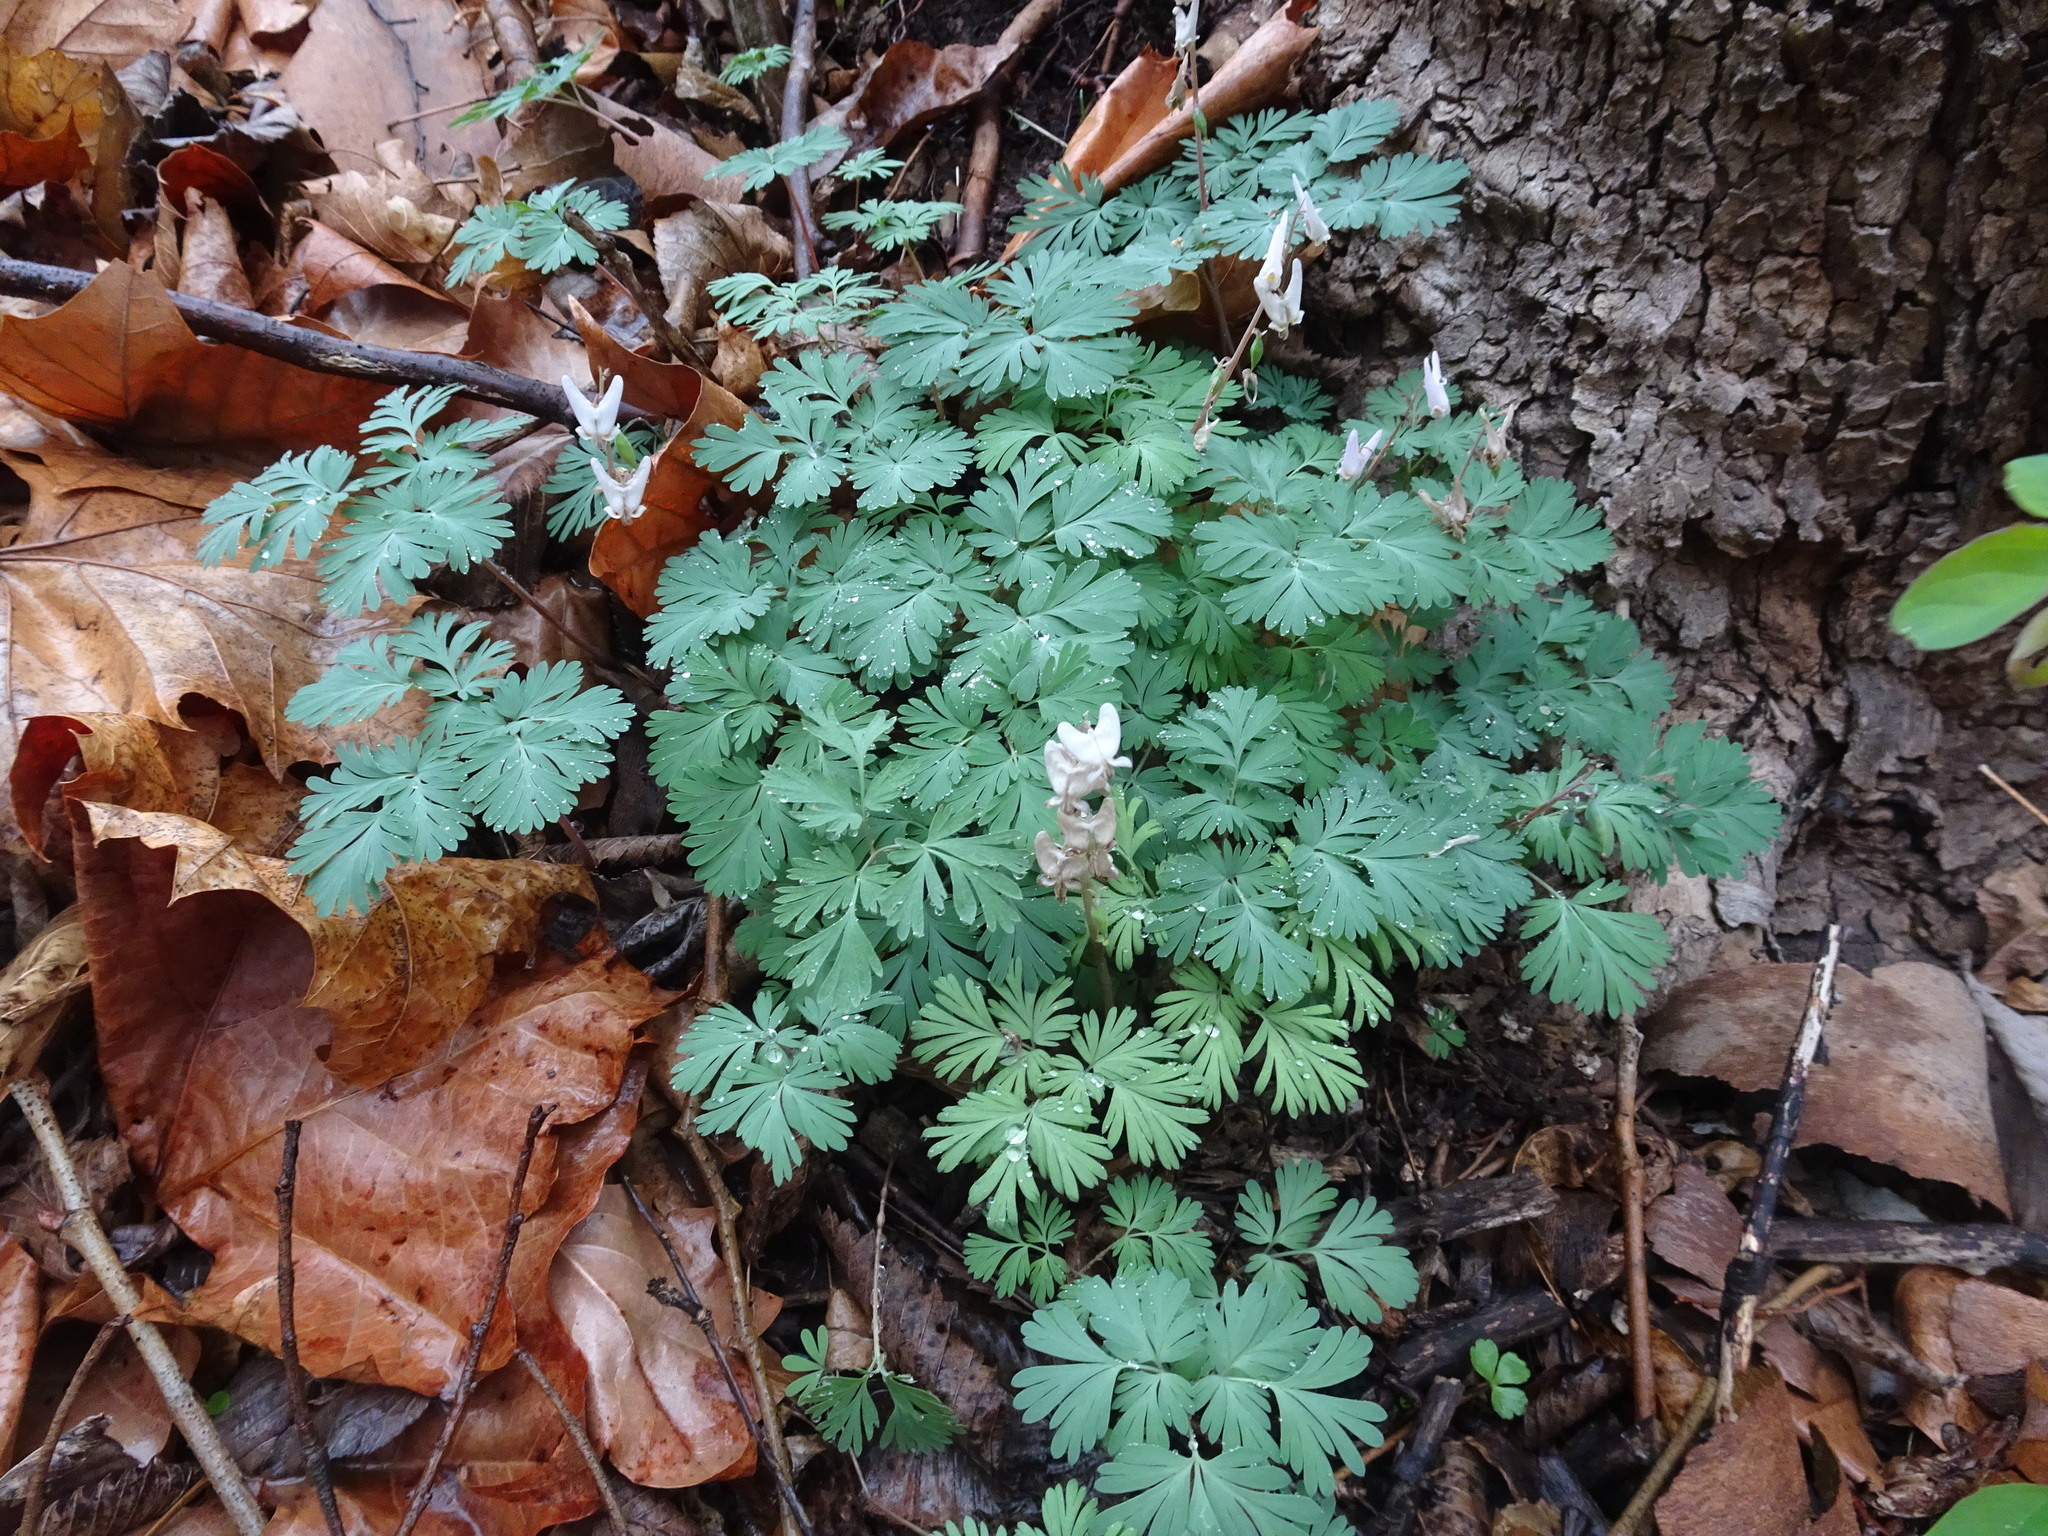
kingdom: Plantae
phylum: Tracheophyta
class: Magnoliopsida
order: Ranunculales
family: Papaveraceae
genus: Dicentra
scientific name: Dicentra cucullaria
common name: Dutchman's breeches
